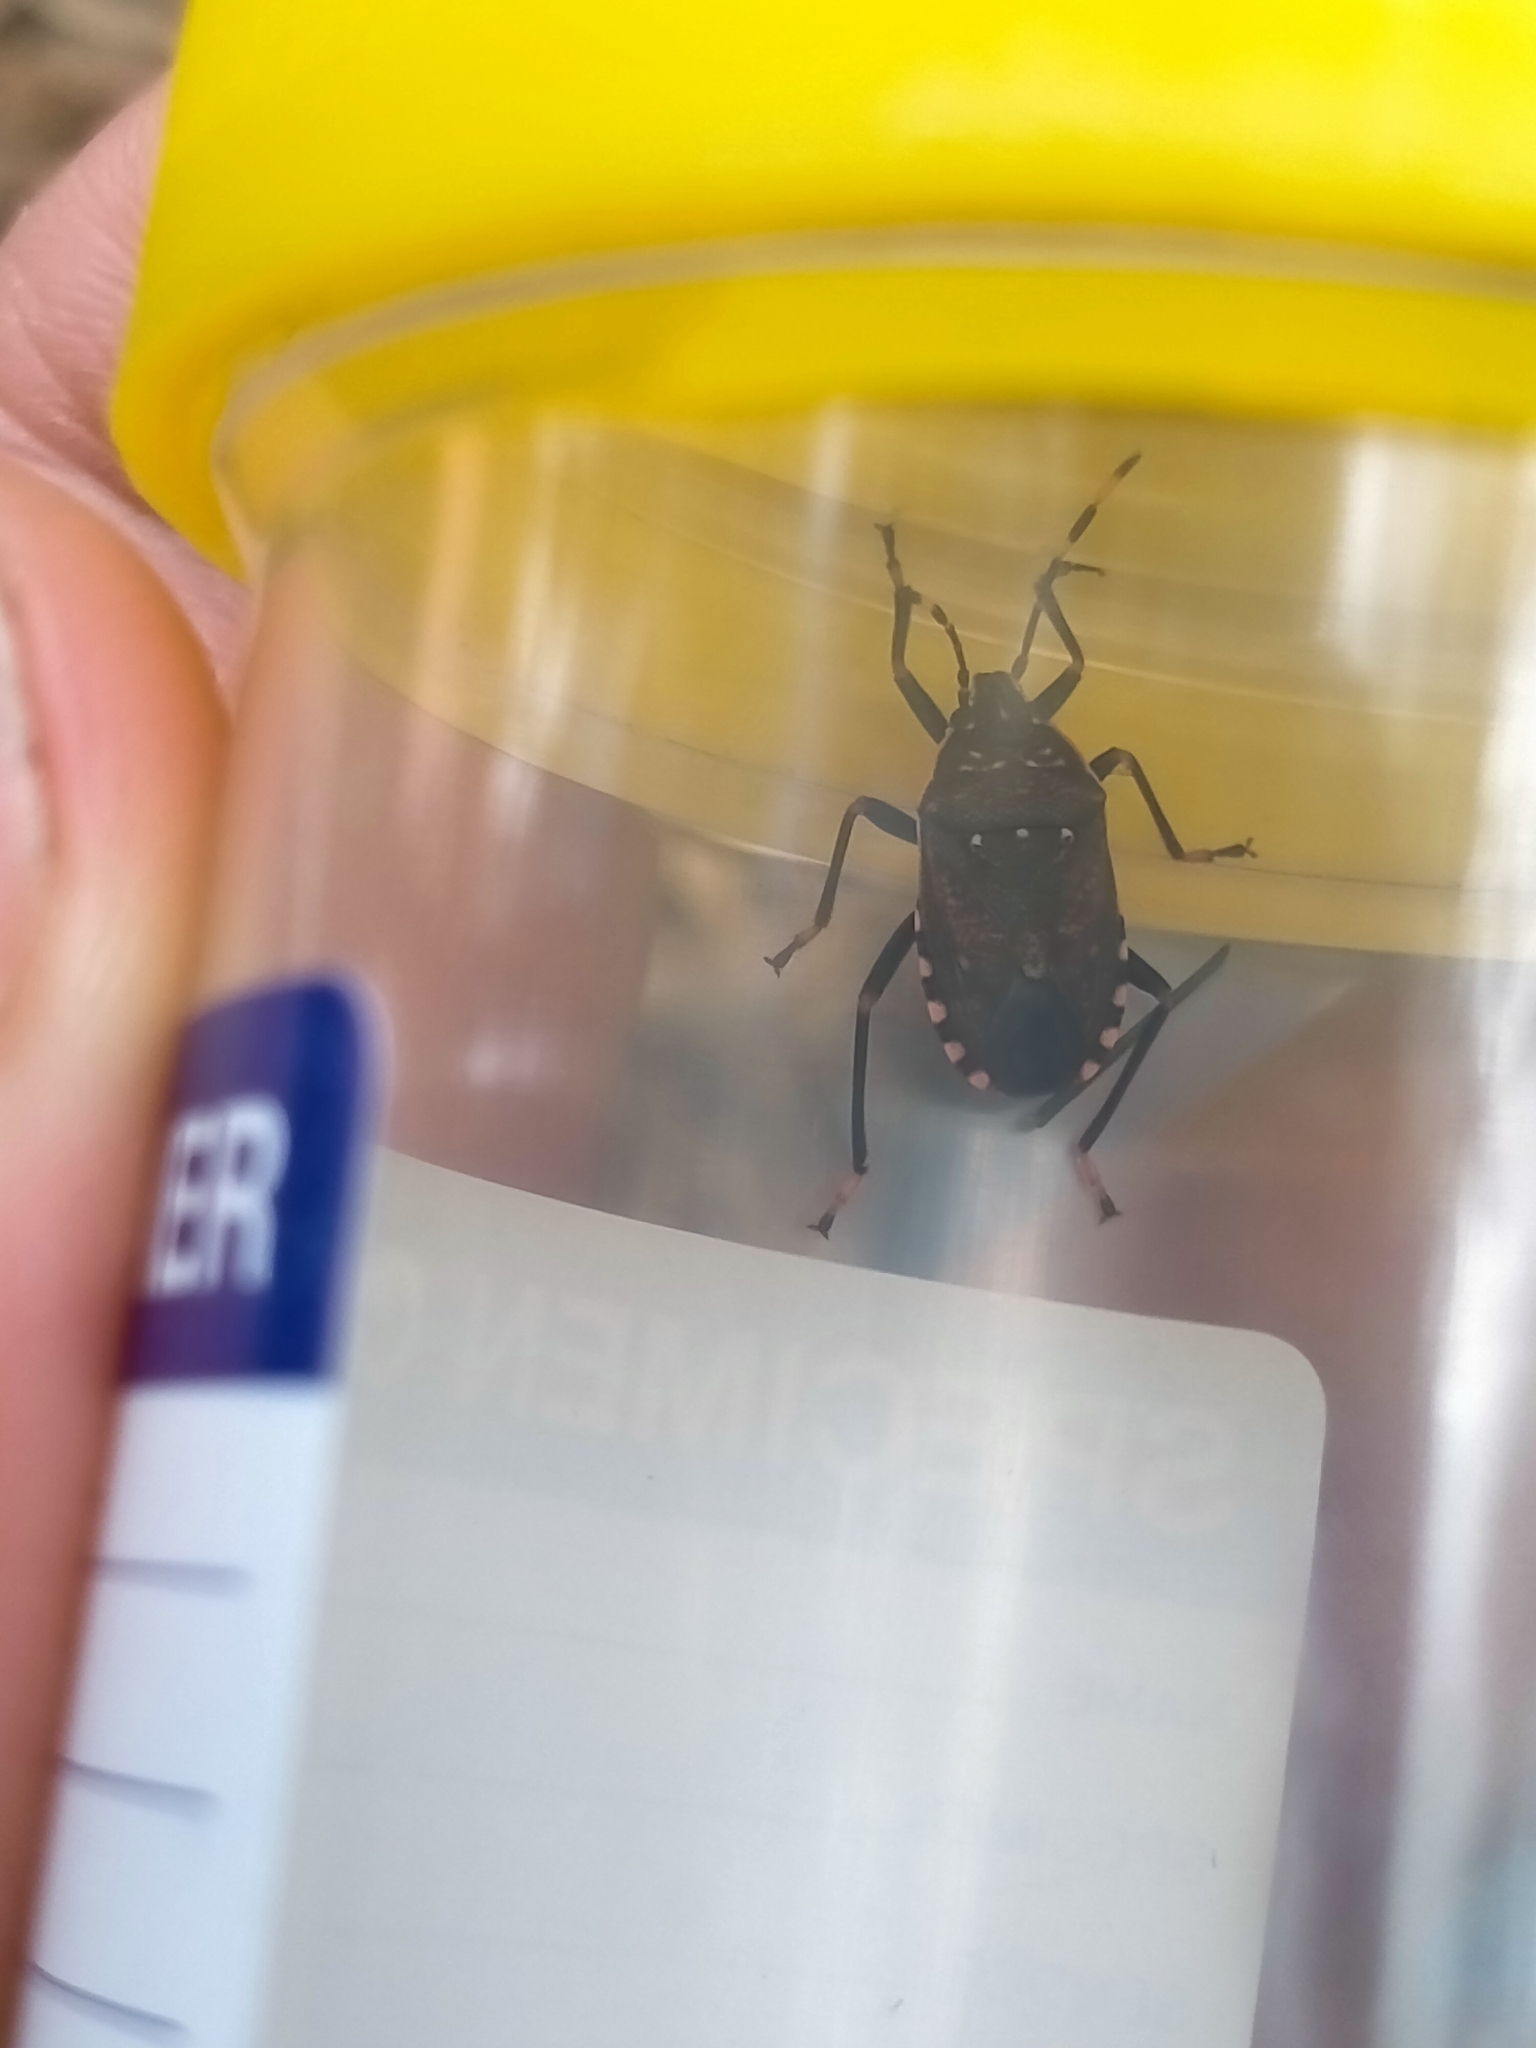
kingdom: Animalia
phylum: Arthropoda
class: Insecta
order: Hemiptera
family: Pentatomidae
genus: Notius
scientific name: Notius
